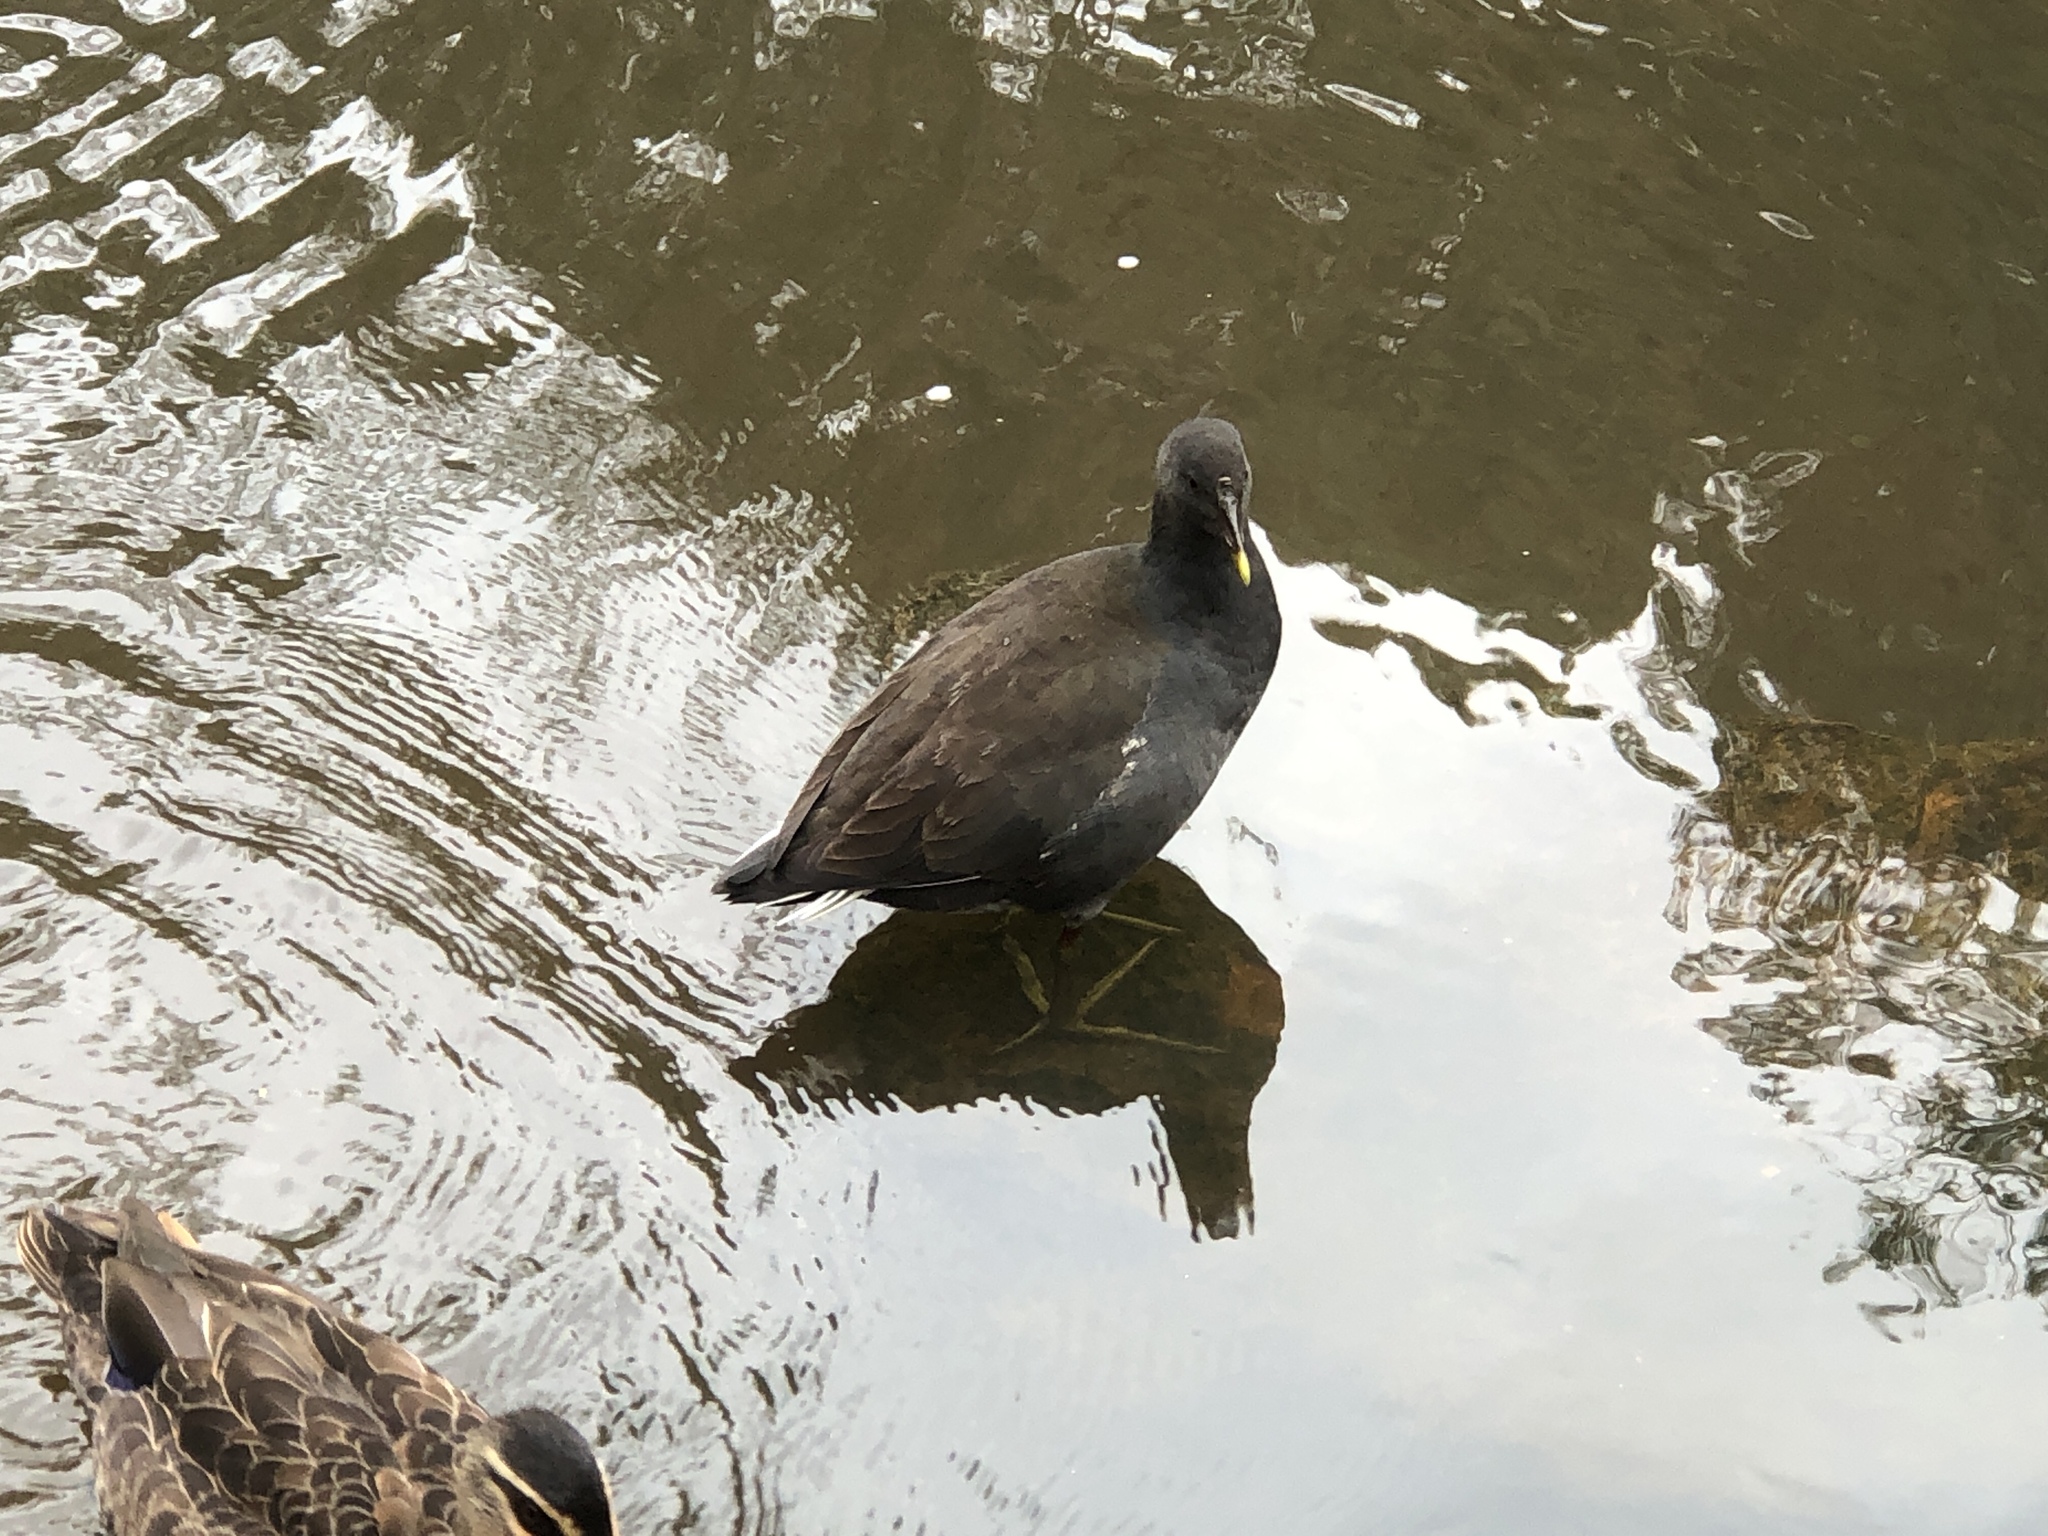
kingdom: Animalia
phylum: Chordata
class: Aves
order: Gruiformes
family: Rallidae
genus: Gallinula
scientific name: Gallinula tenebrosa
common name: Dusky moorhen
